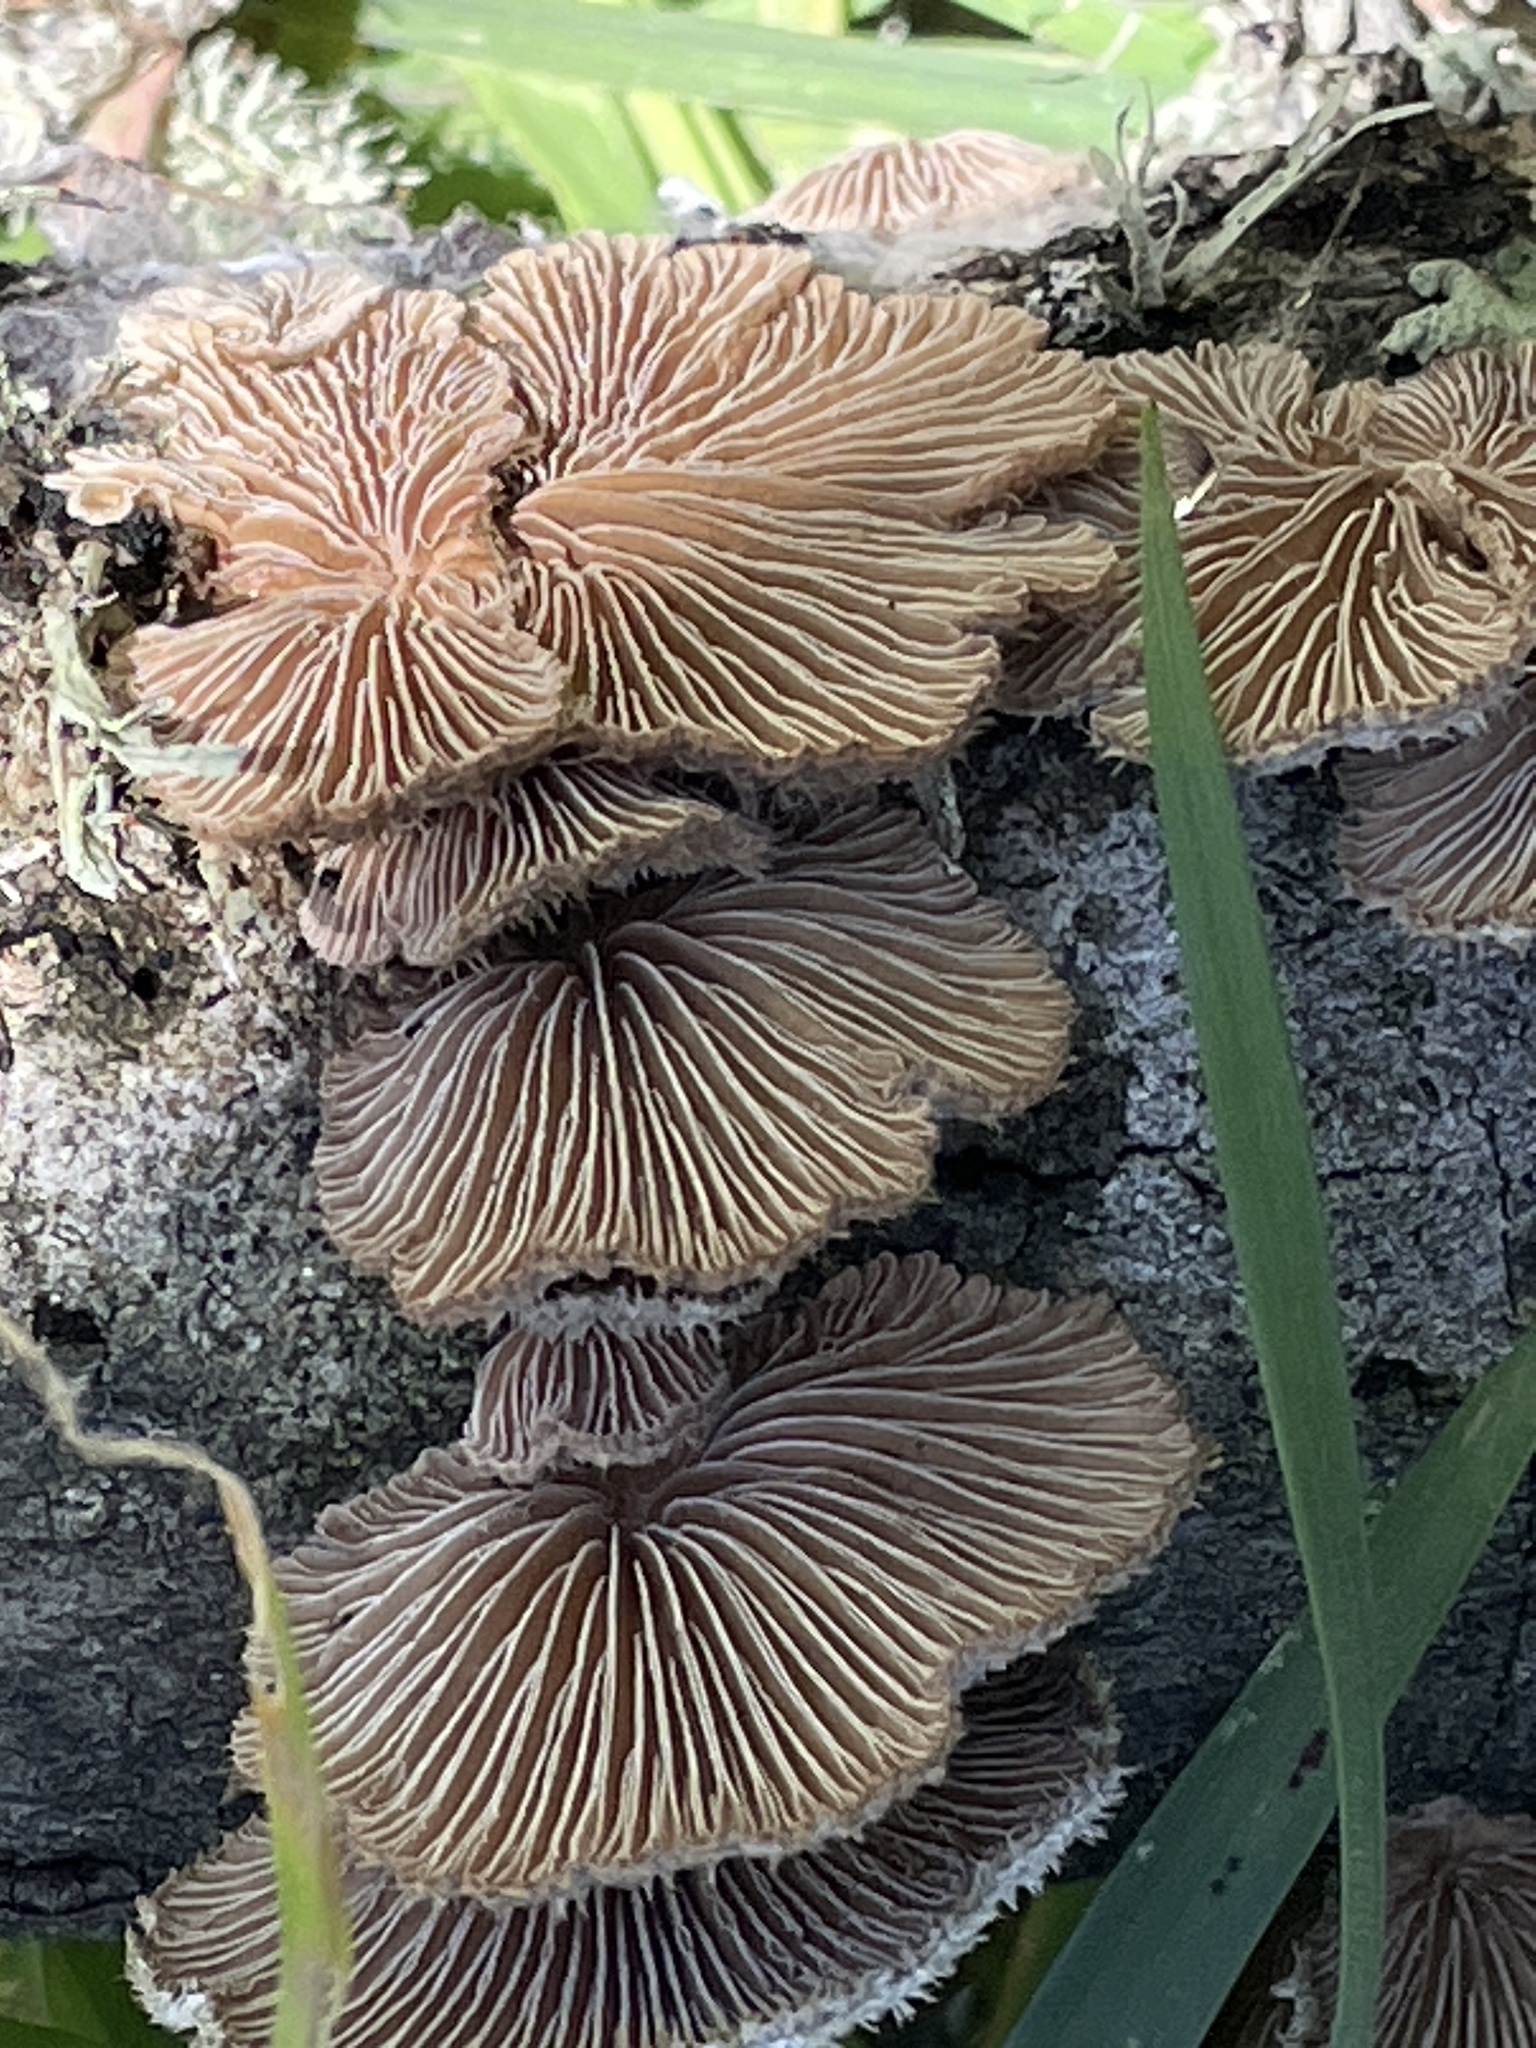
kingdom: Fungi
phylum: Basidiomycota
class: Agaricomycetes
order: Agaricales
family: Schizophyllaceae
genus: Schizophyllum
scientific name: Schizophyllum commune
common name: Common porecrust
